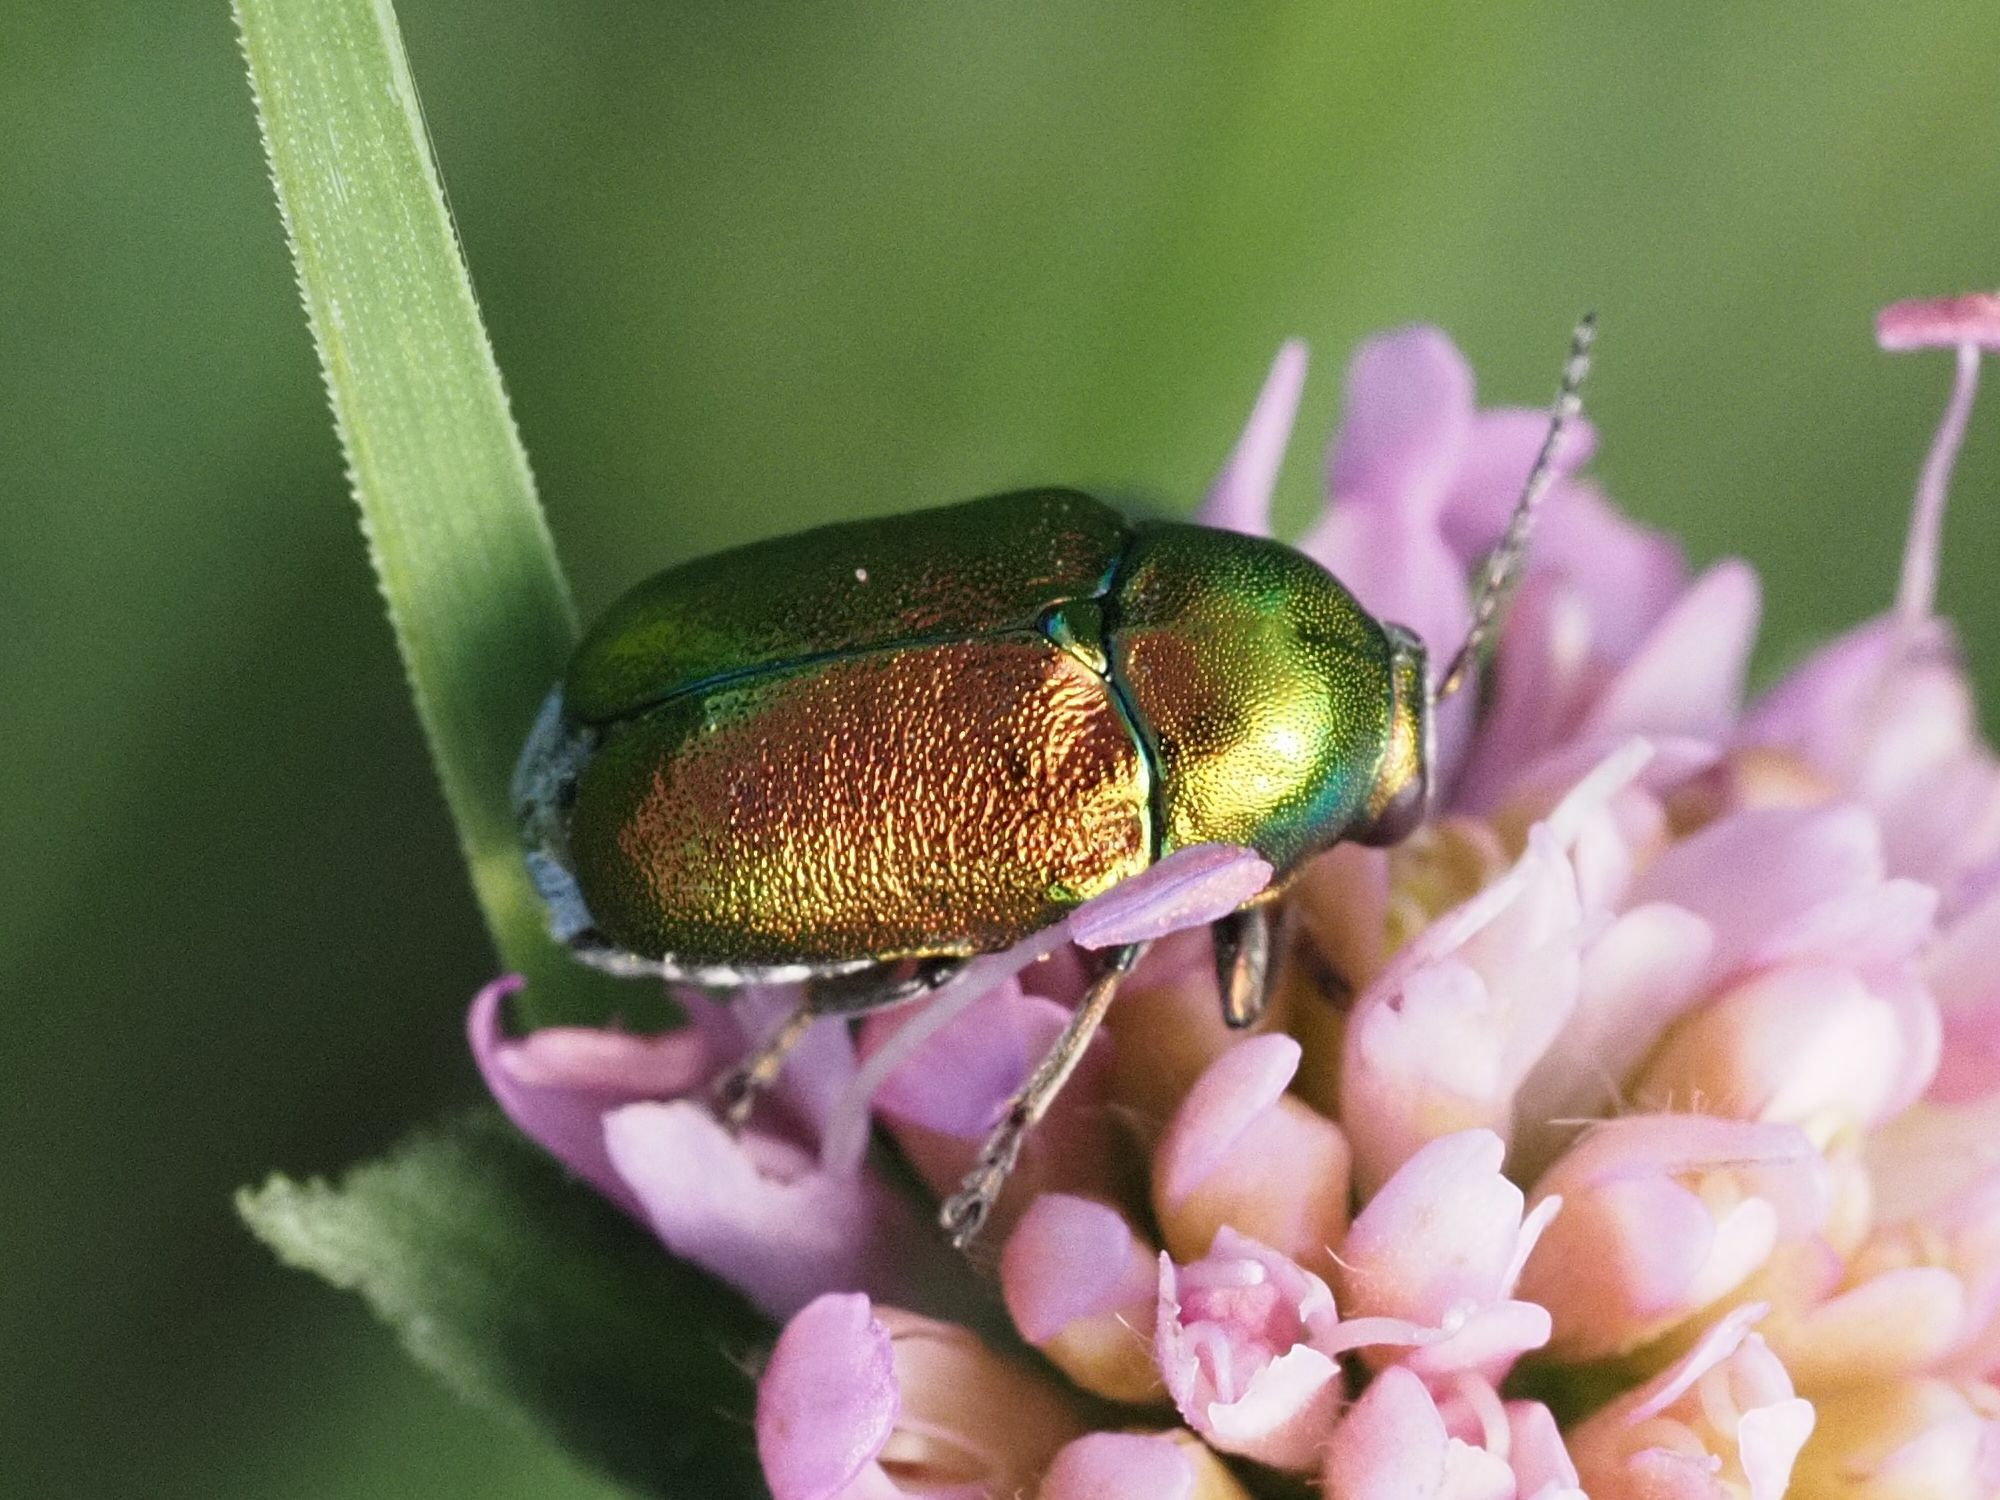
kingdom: Animalia
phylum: Arthropoda
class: Insecta
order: Coleoptera
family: Chrysomelidae
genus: Cryptocephalus
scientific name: Cryptocephalus sericeus
